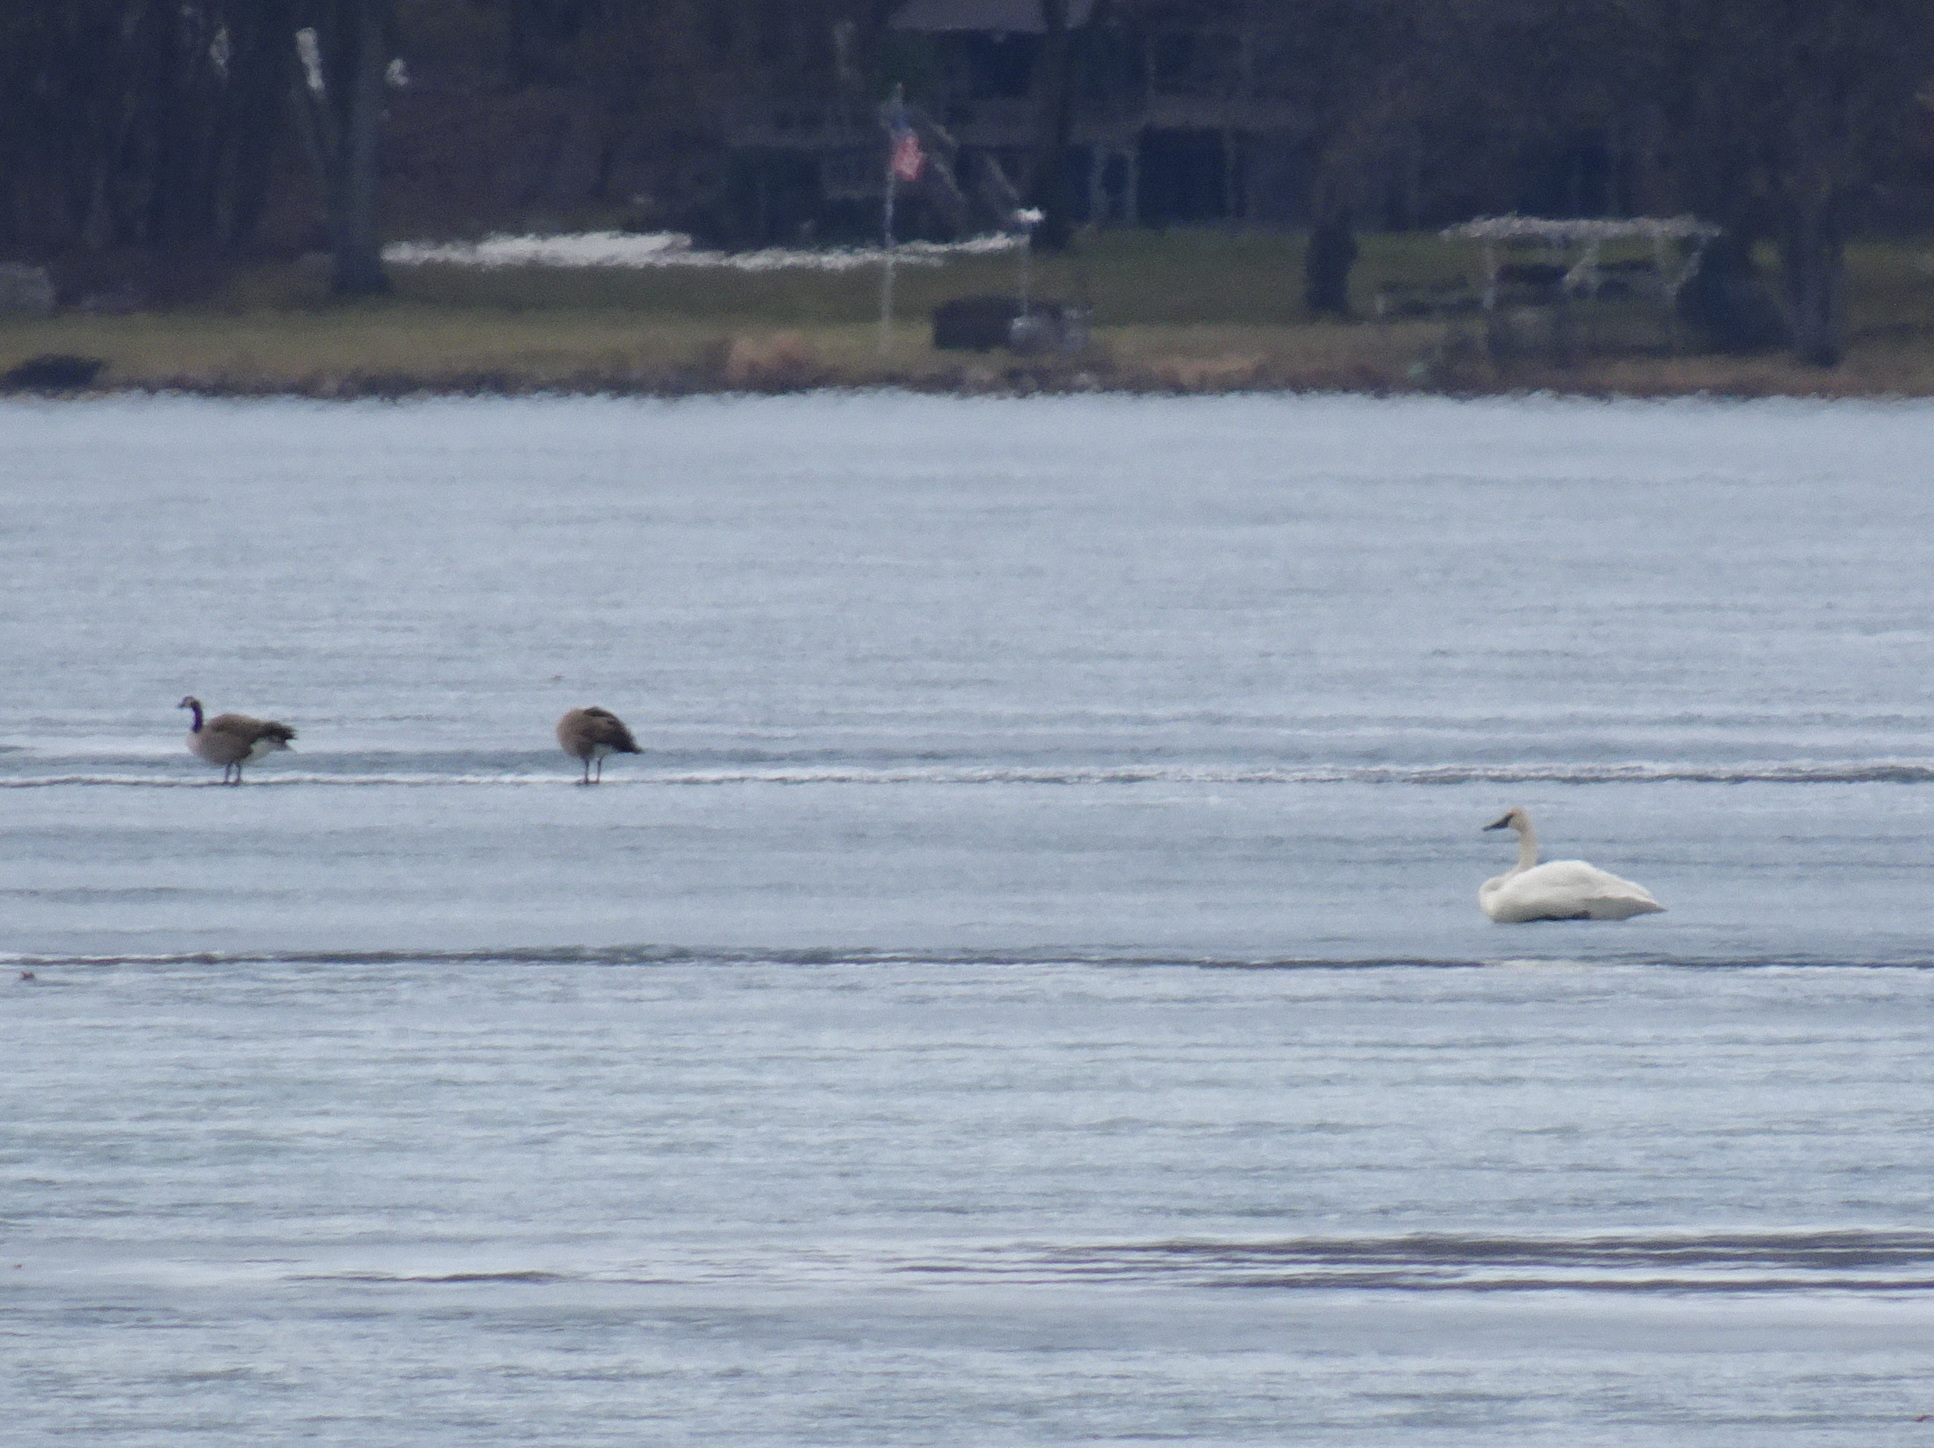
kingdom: Animalia
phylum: Chordata
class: Aves
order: Anseriformes
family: Anatidae
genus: Cygnus
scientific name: Cygnus buccinator
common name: Trumpeter swan
